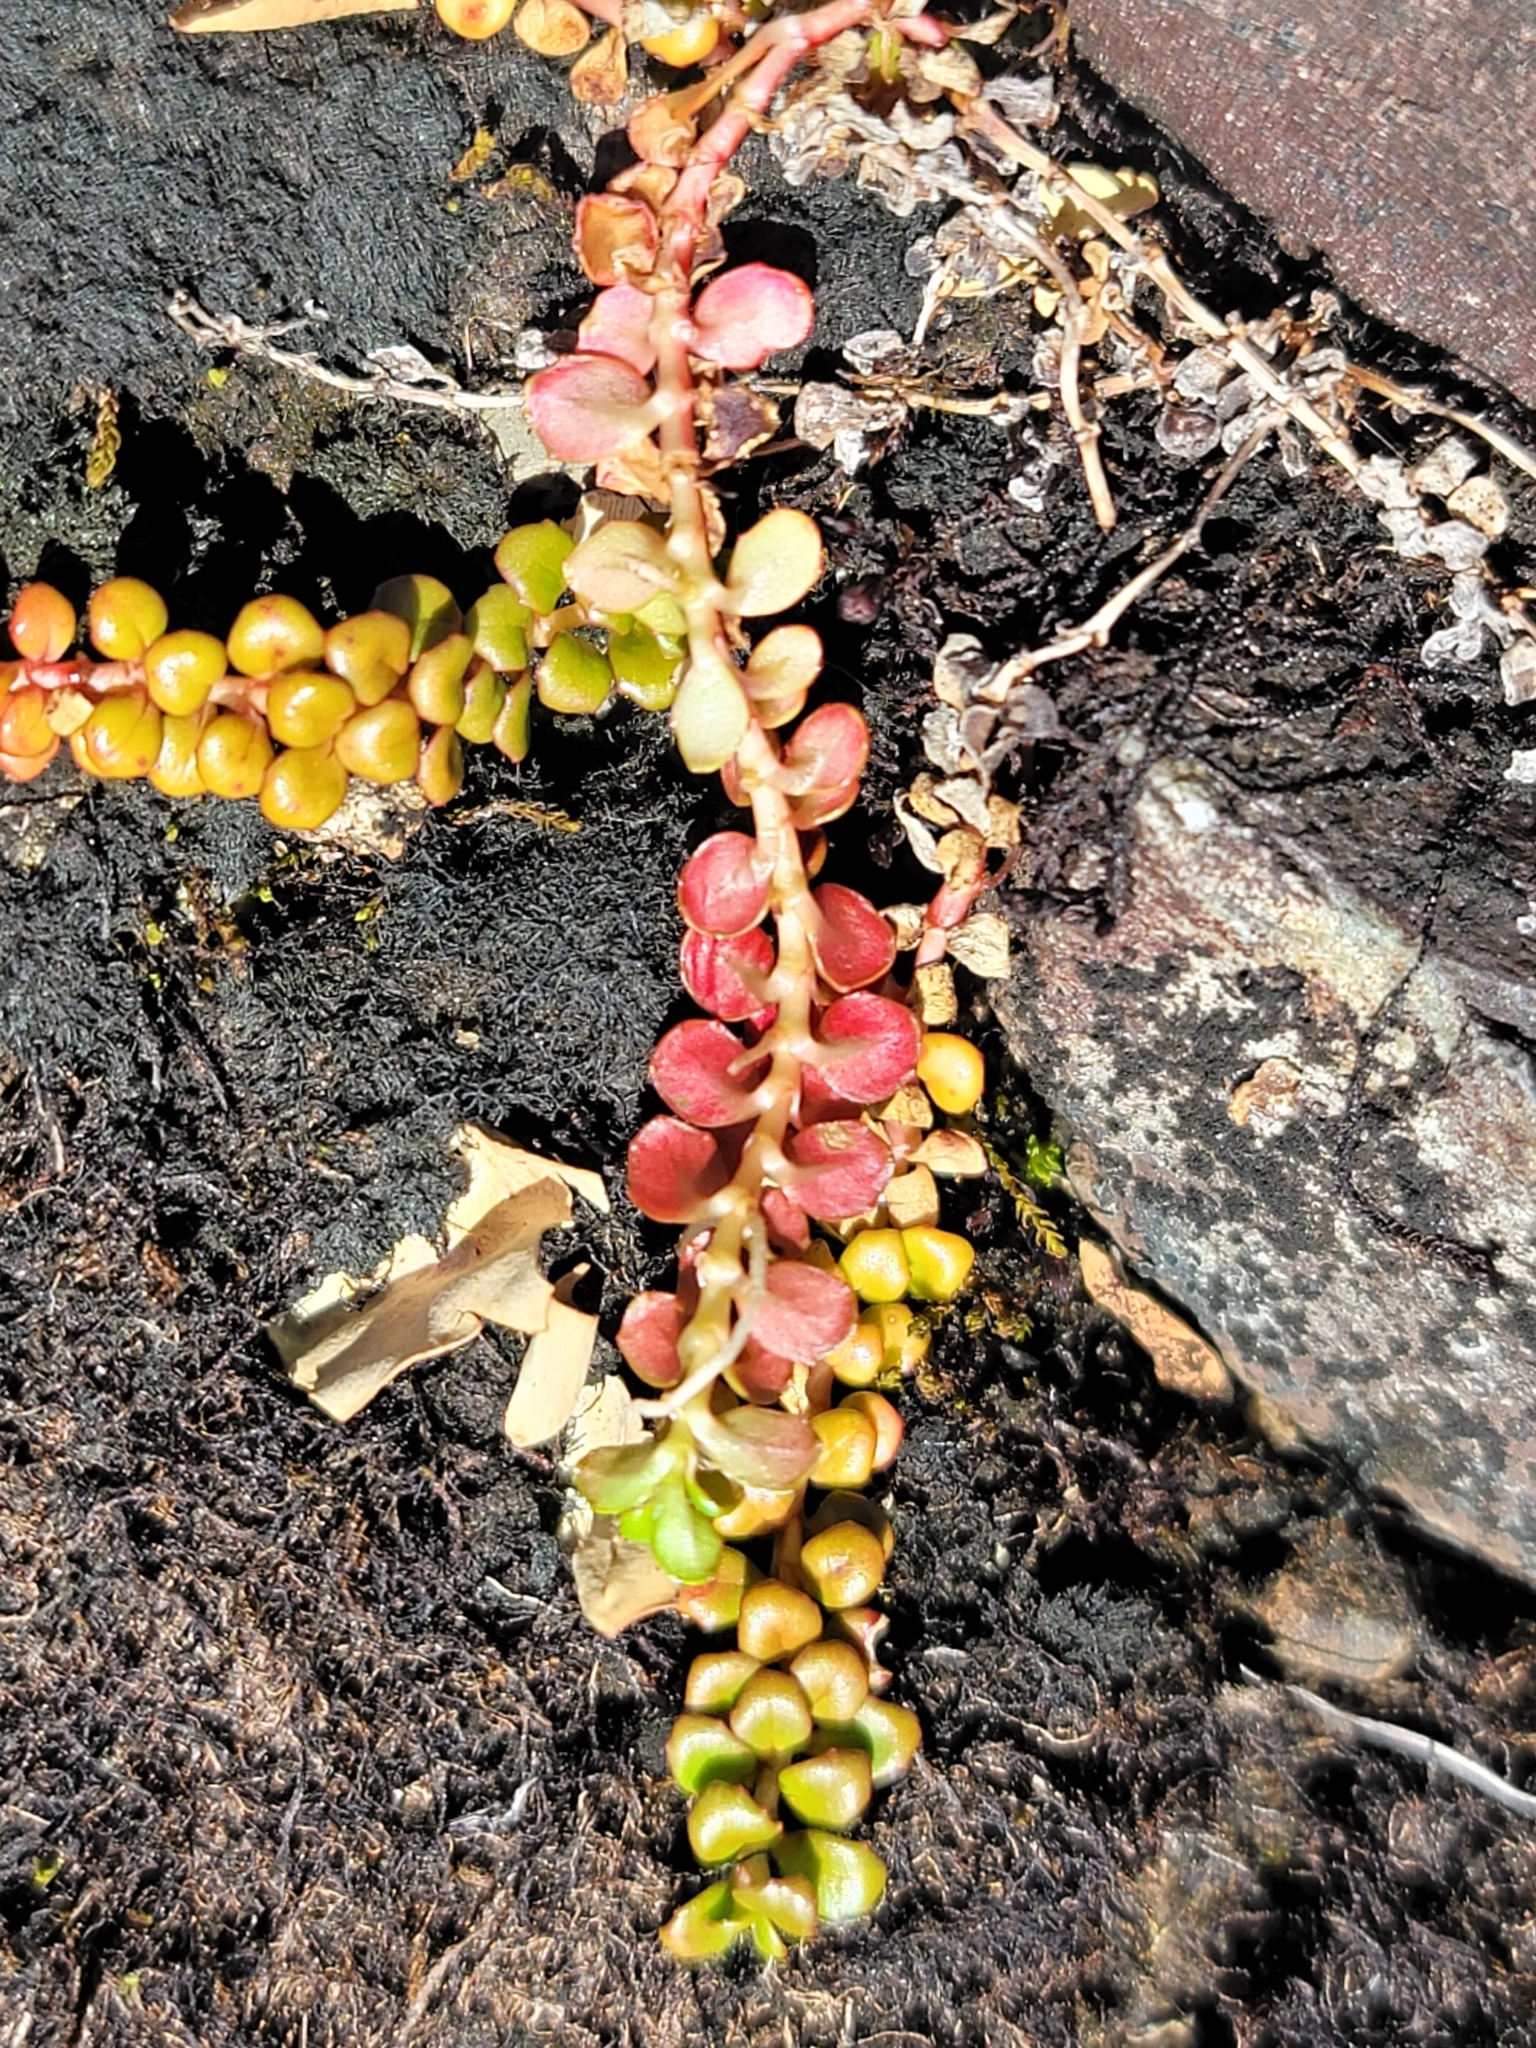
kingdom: Plantae
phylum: Tracheophyta
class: Magnoliopsida
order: Myrtales
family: Onagraceae
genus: Epilobium
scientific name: Epilobium pernitens
